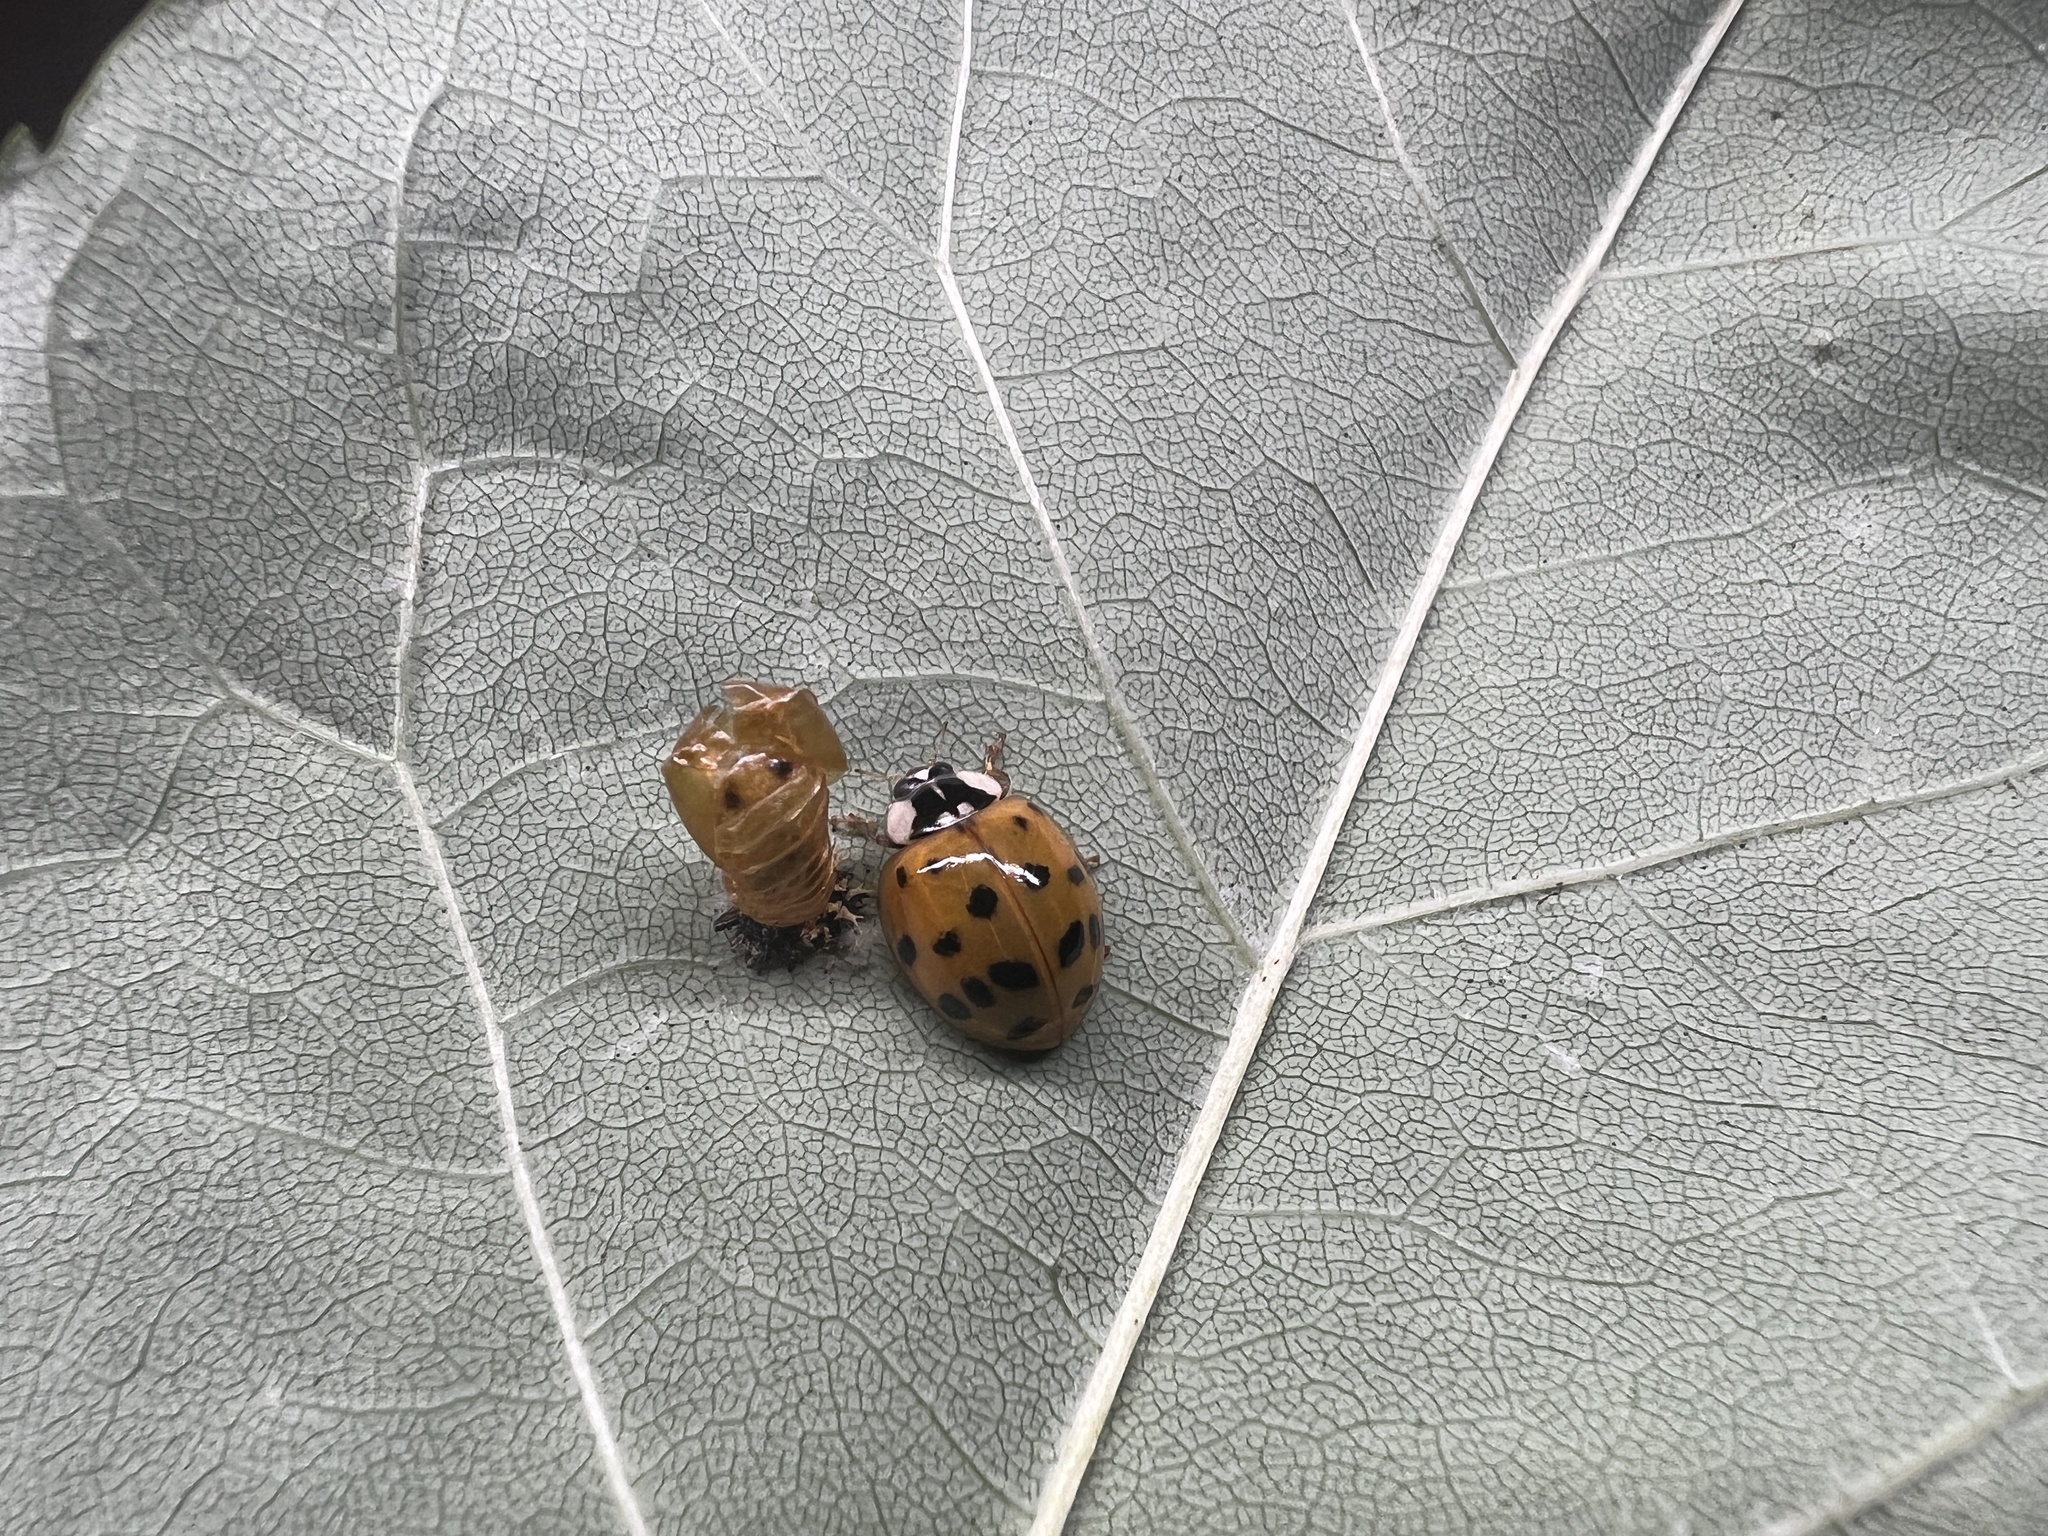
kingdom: Animalia
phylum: Arthropoda
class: Insecta
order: Coleoptera
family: Coccinellidae
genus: Harmonia
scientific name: Harmonia axyridis
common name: Harlequin ladybird
